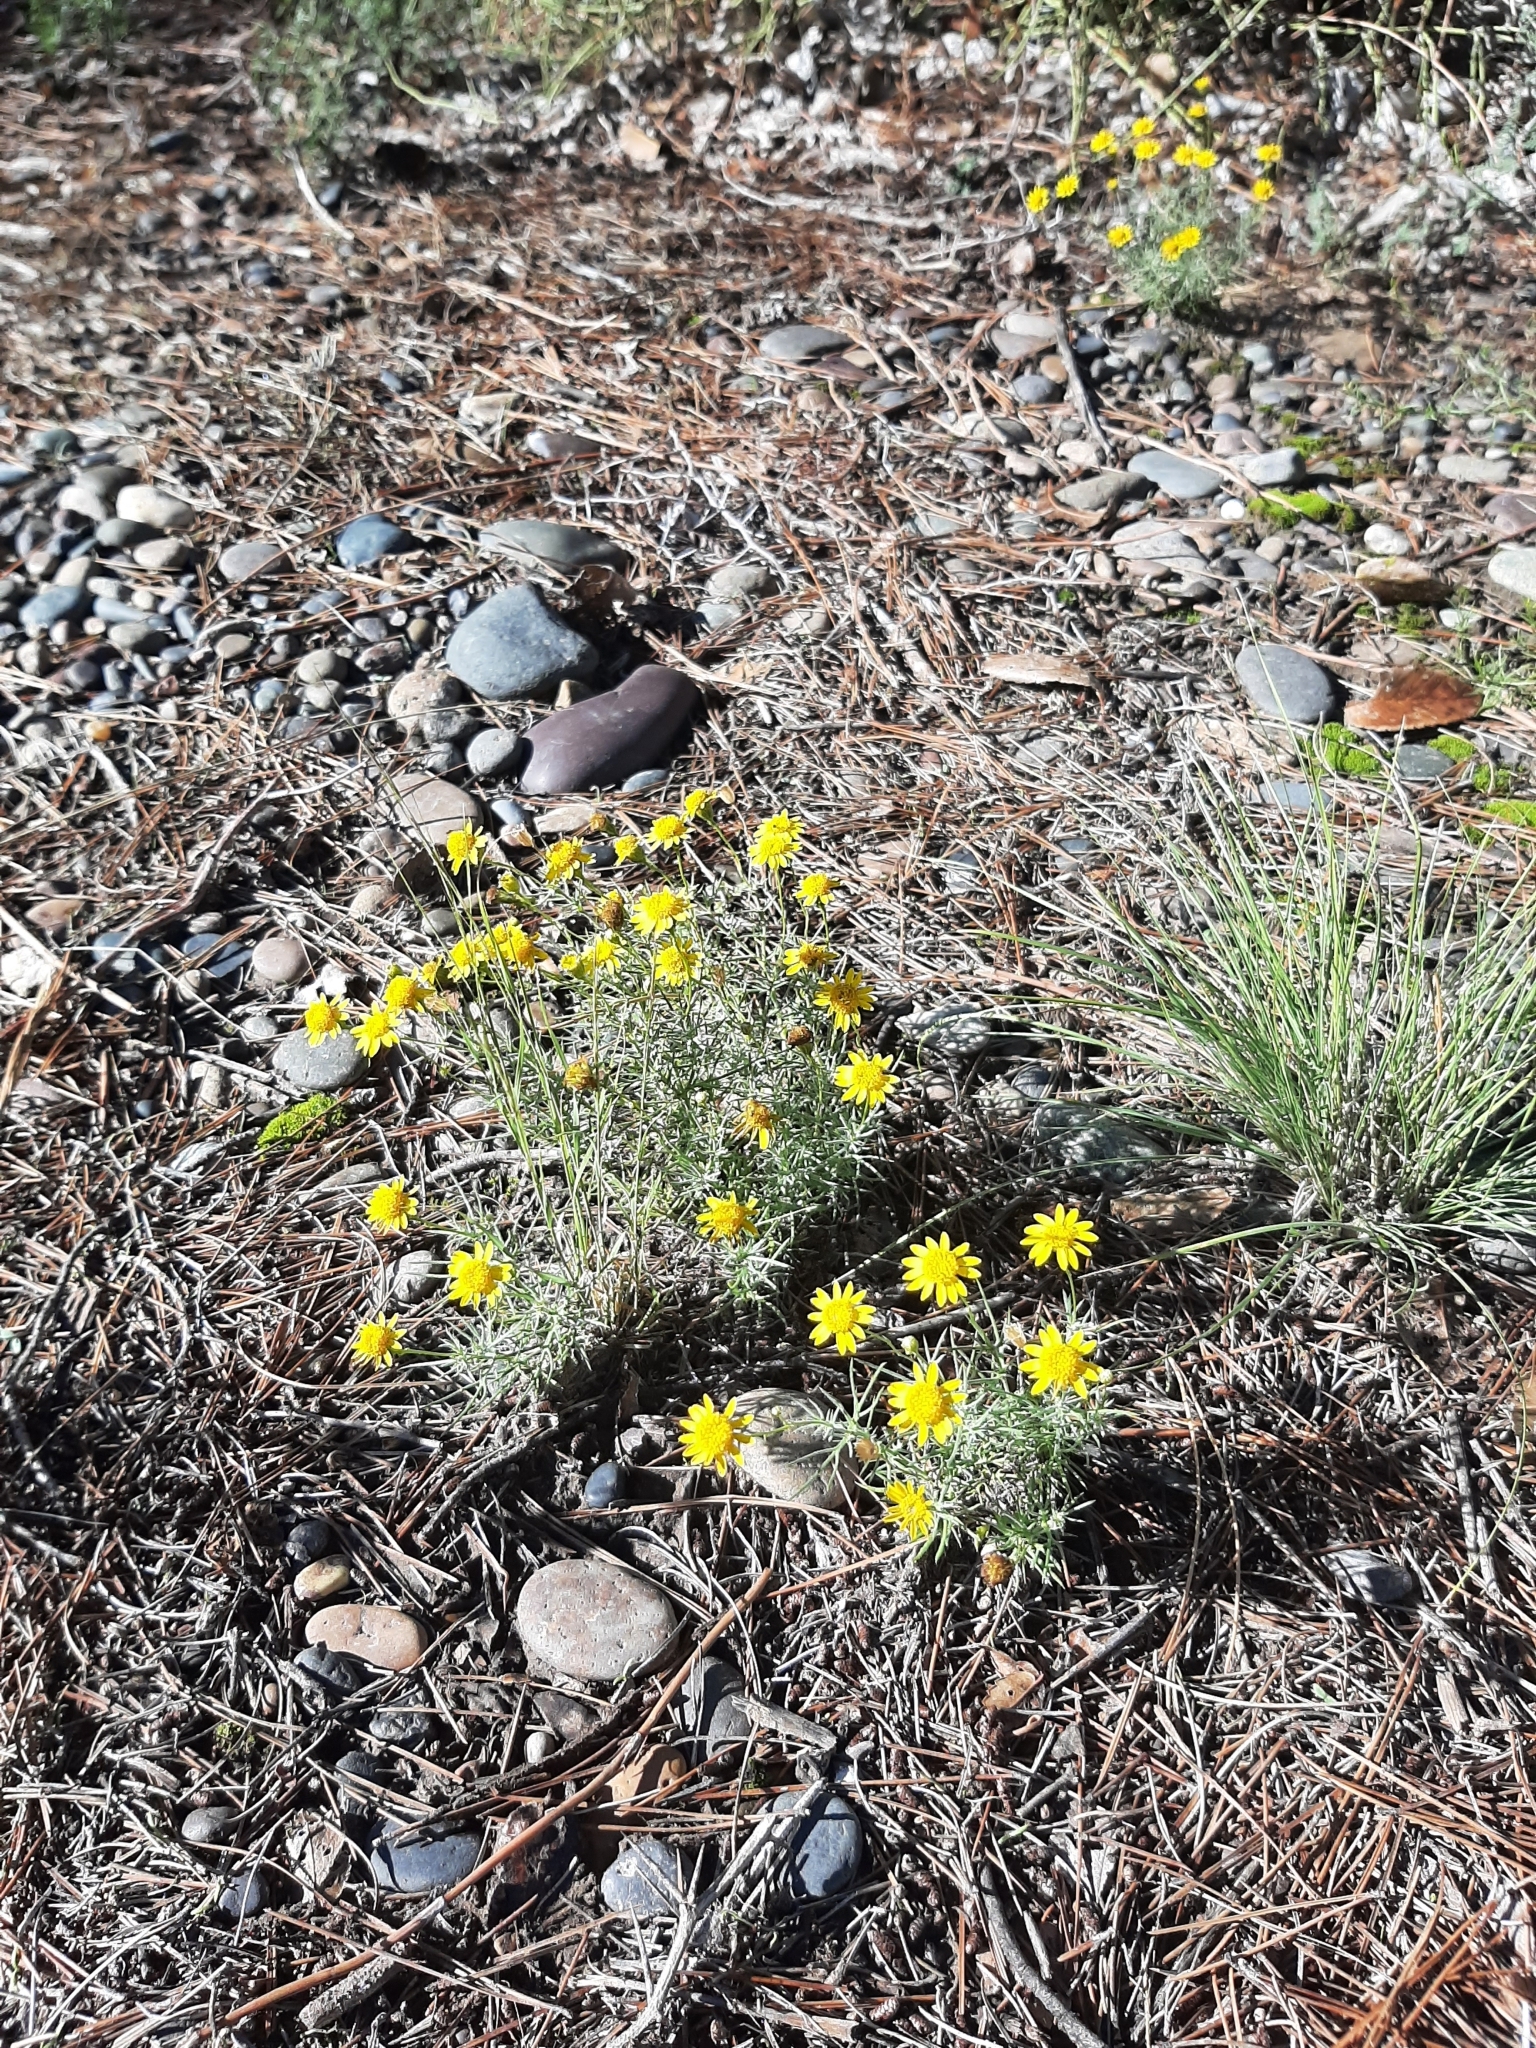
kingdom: Plantae
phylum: Tracheophyta
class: Magnoliopsida
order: Asterales
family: Asteraceae
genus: Thymophylla
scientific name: Thymophylla pentachaeta
